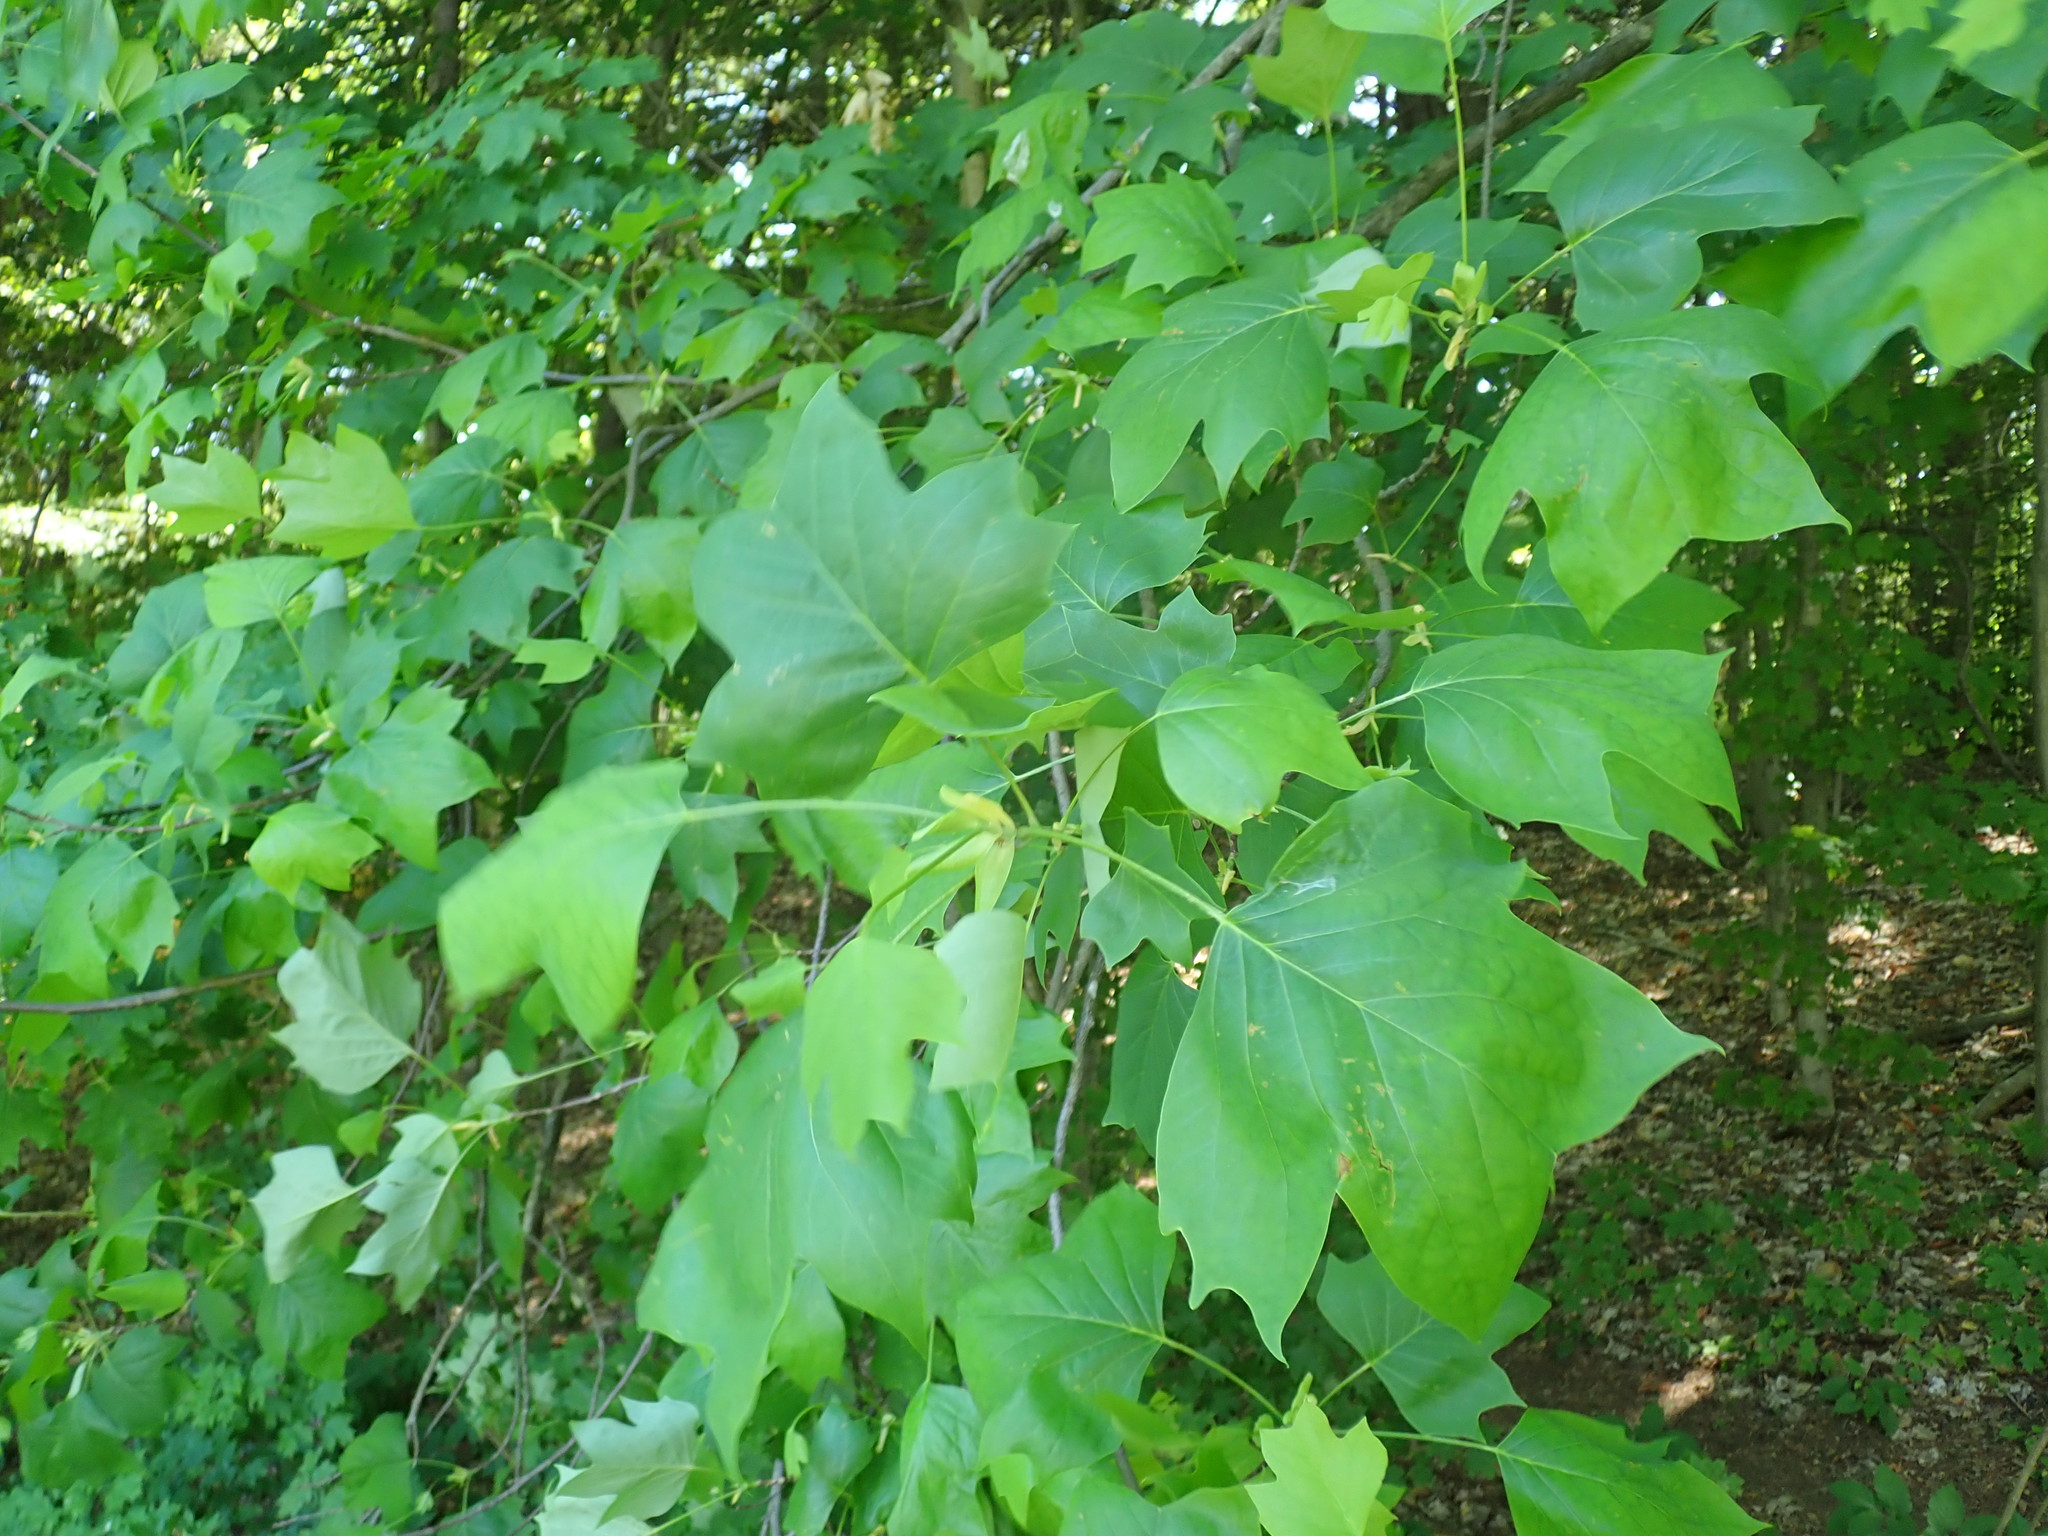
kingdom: Plantae
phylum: Tracheophyta
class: Magnoliopsida
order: Magnoliales
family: Magnoliaceae
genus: Liriodendron
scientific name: Liriodendron tulipifera
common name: Tulip tree
